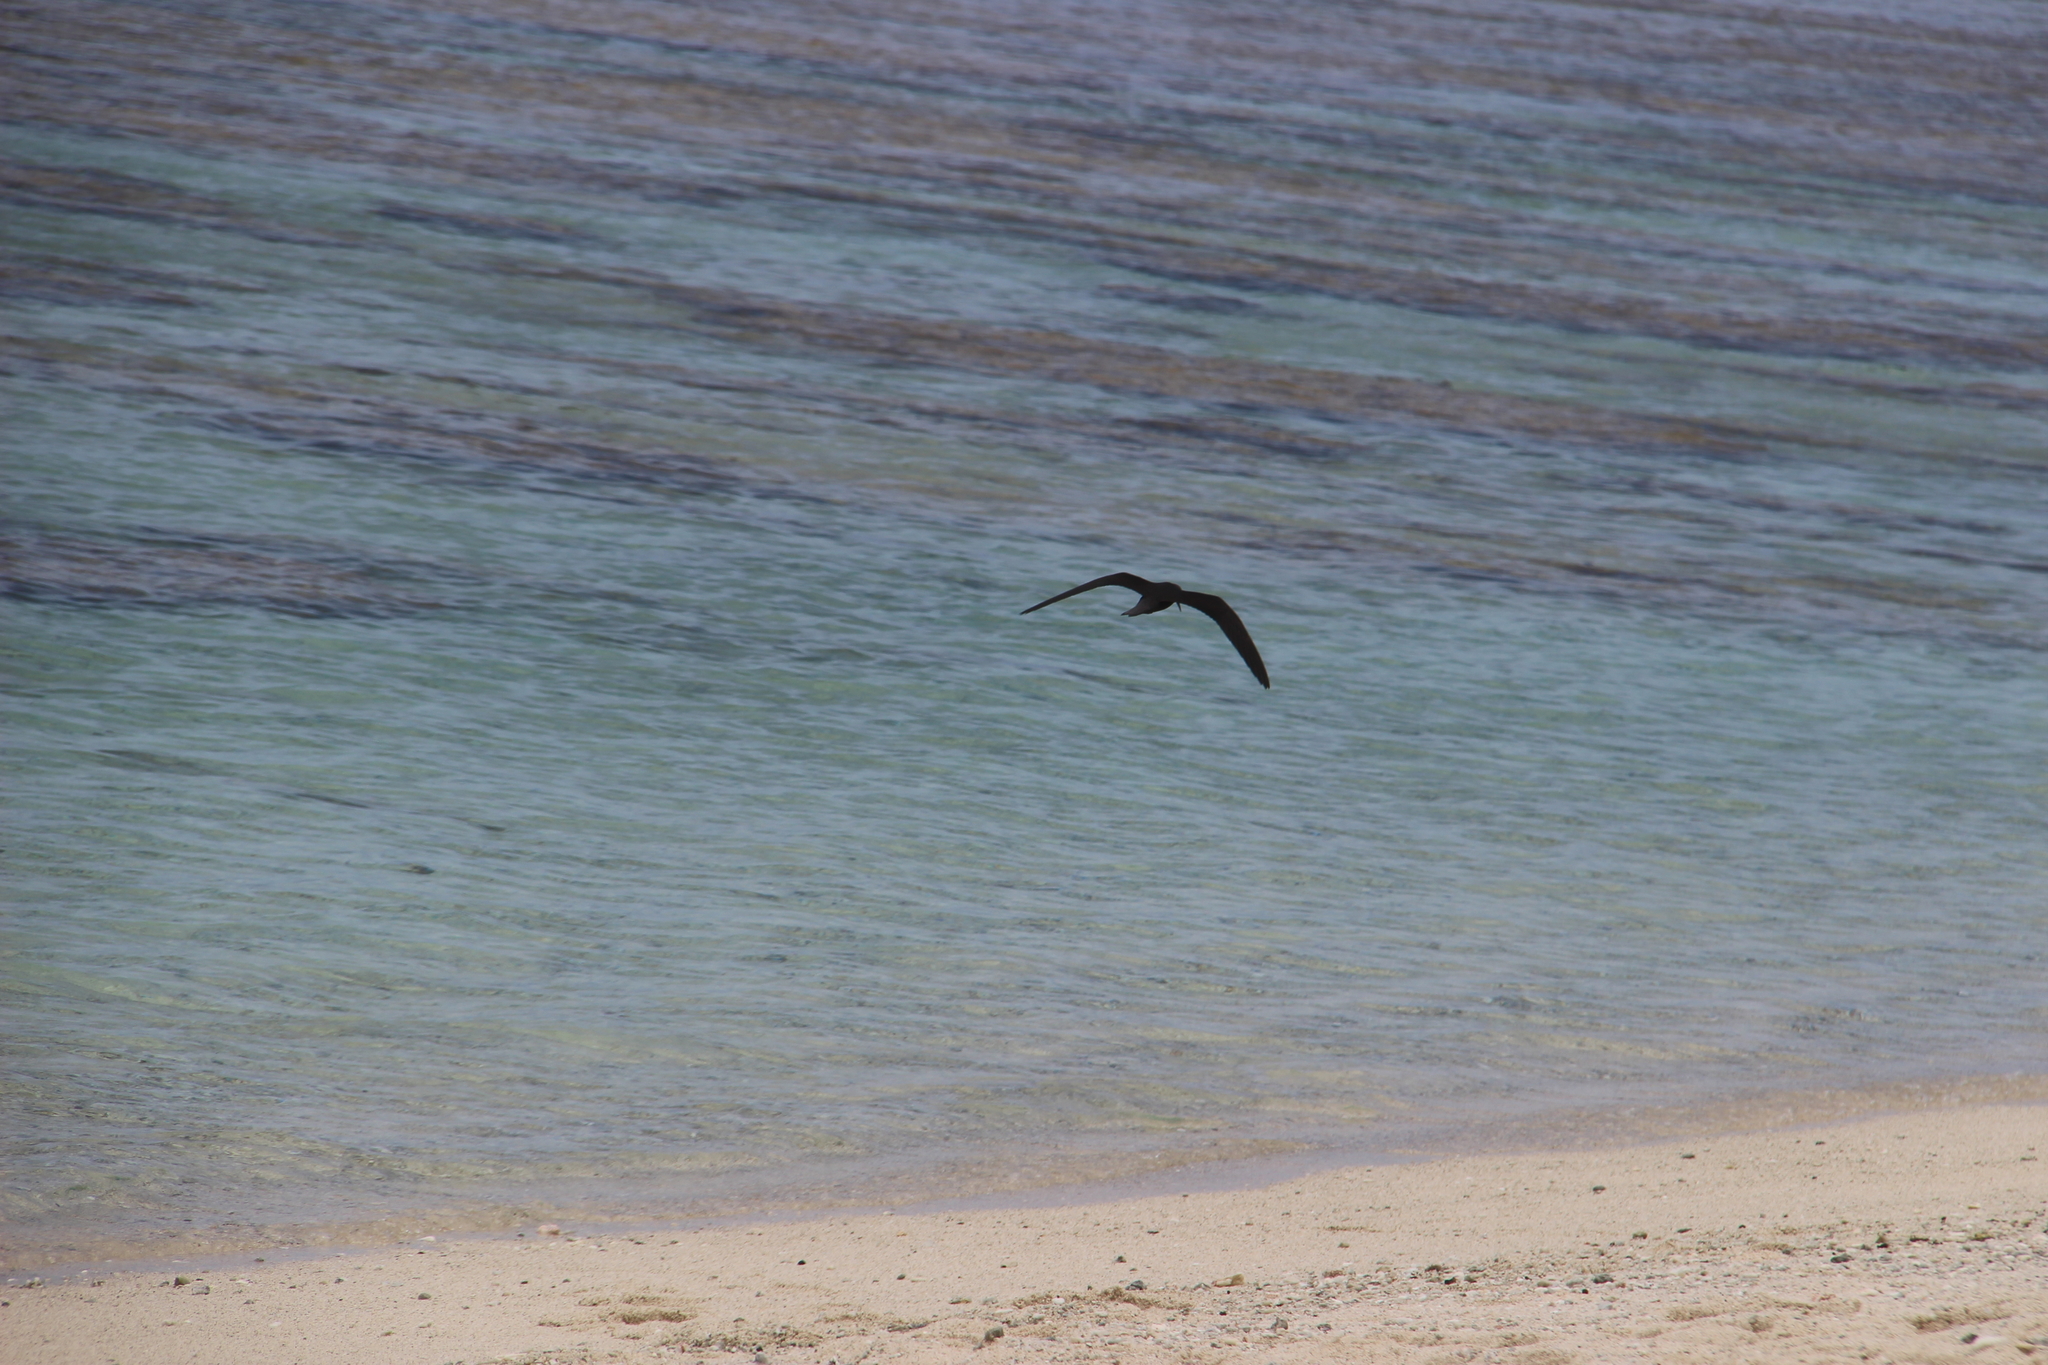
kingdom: Animalia
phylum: Chordata
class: Aves
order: Charadriiformes
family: Laridae
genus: Anous
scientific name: Anous minutus
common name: Black noddy
